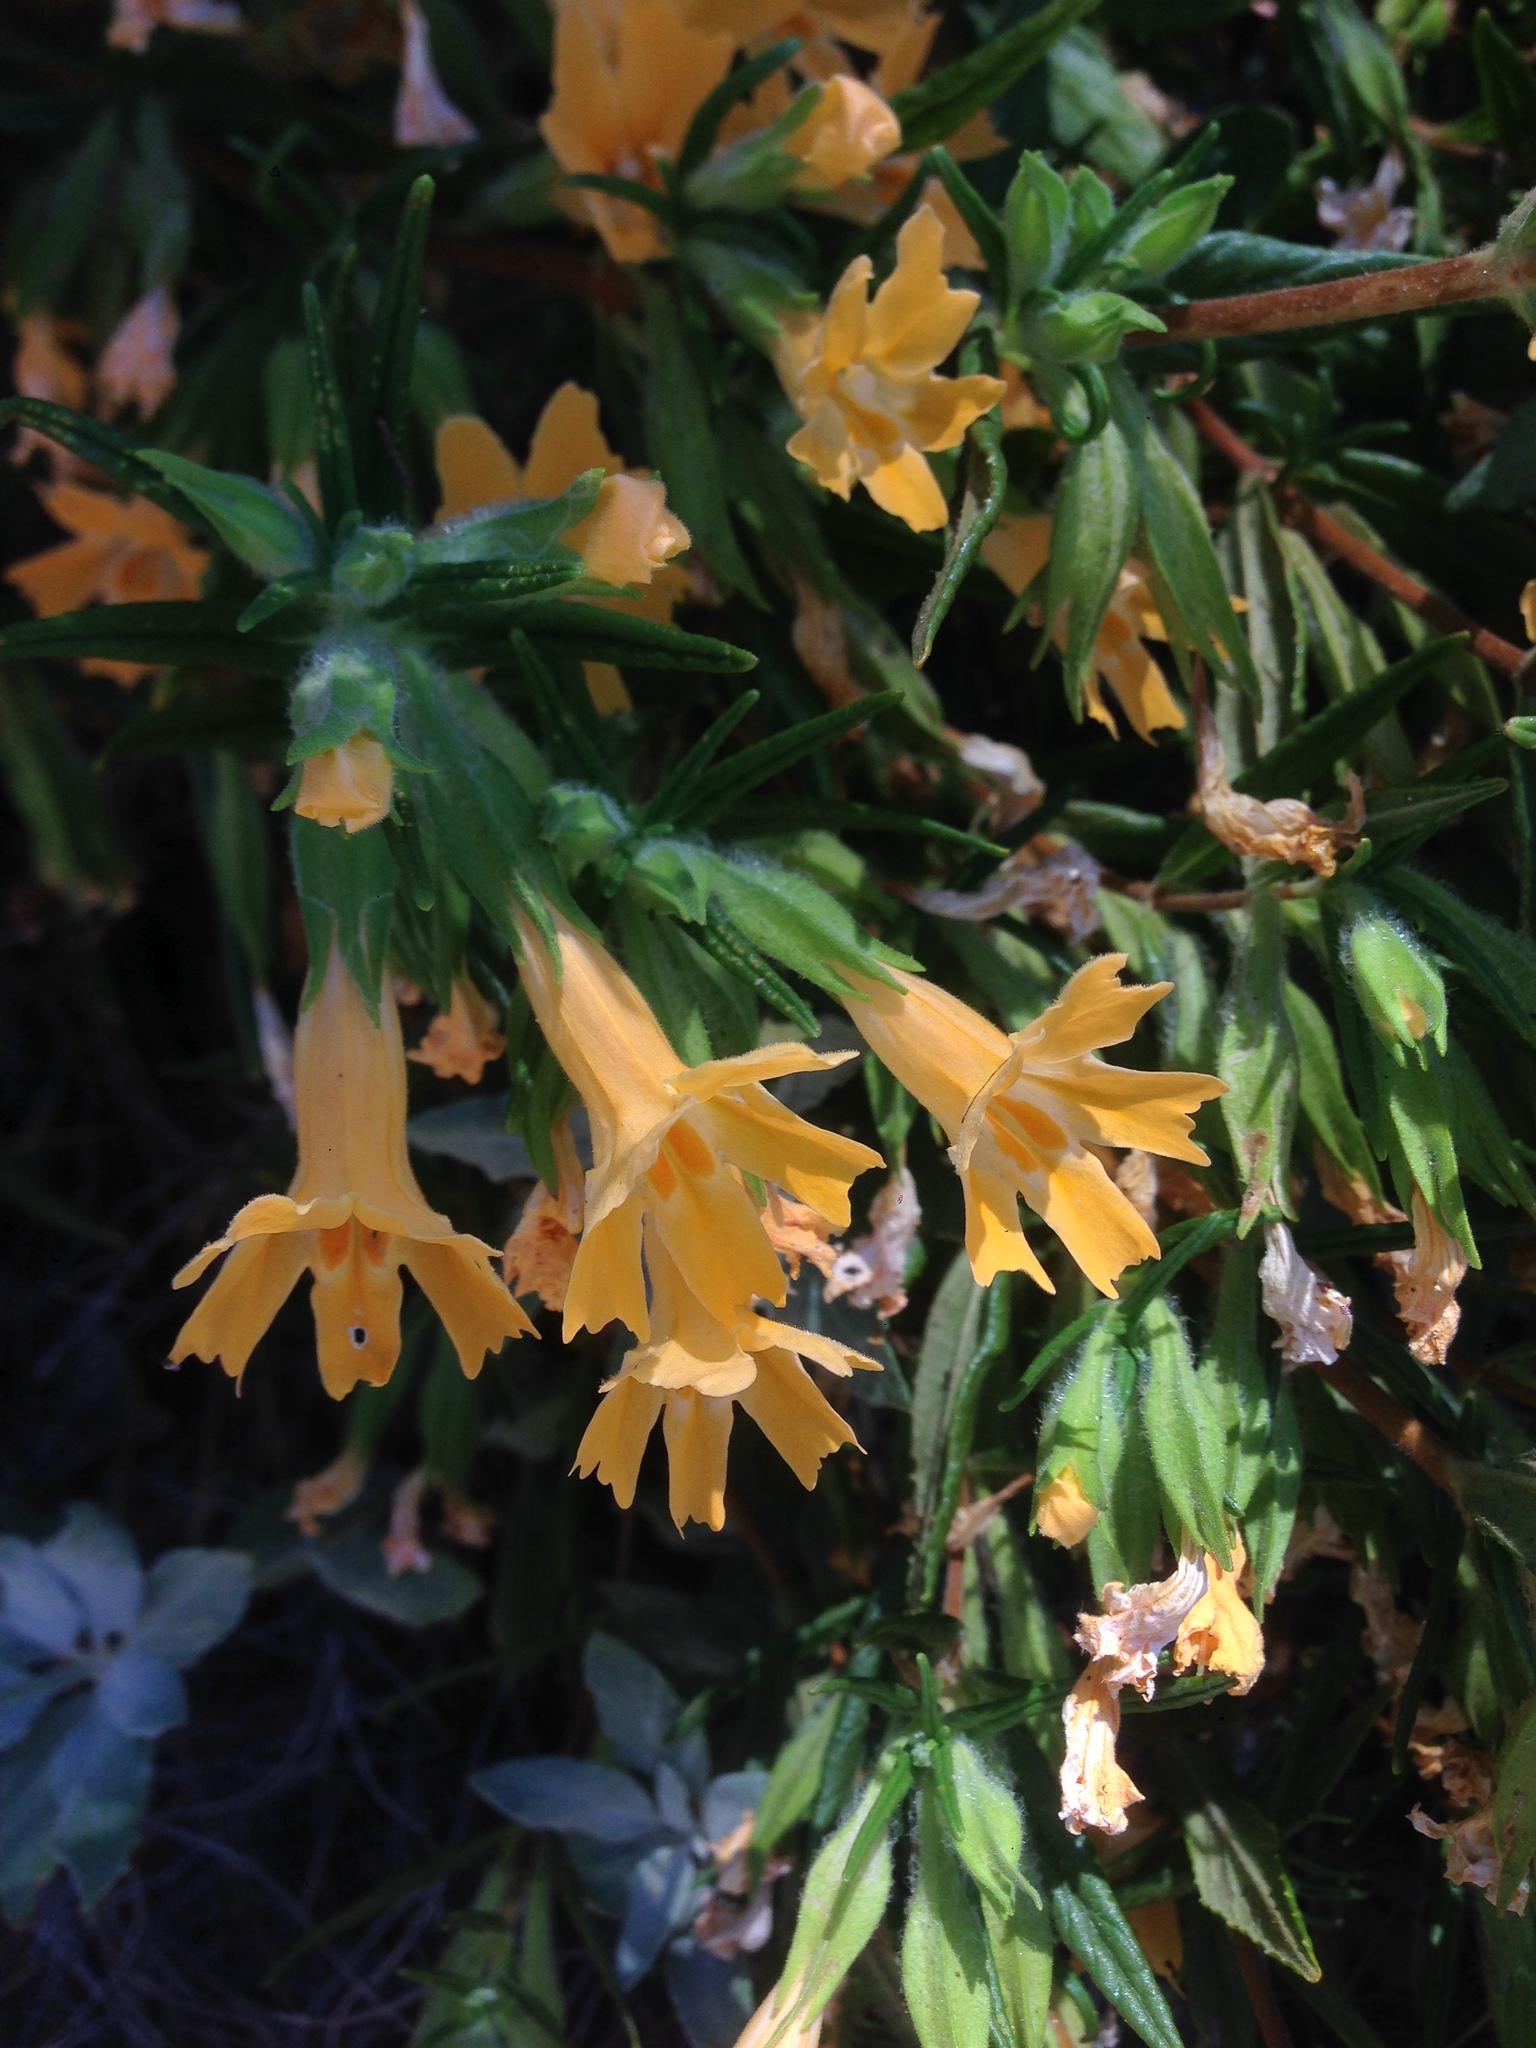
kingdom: Plantae
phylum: Tracheophyta
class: Magnoliopsida
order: Lamiales
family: Phrymaceae
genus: Diplacus
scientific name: Diplacus longiflorus
